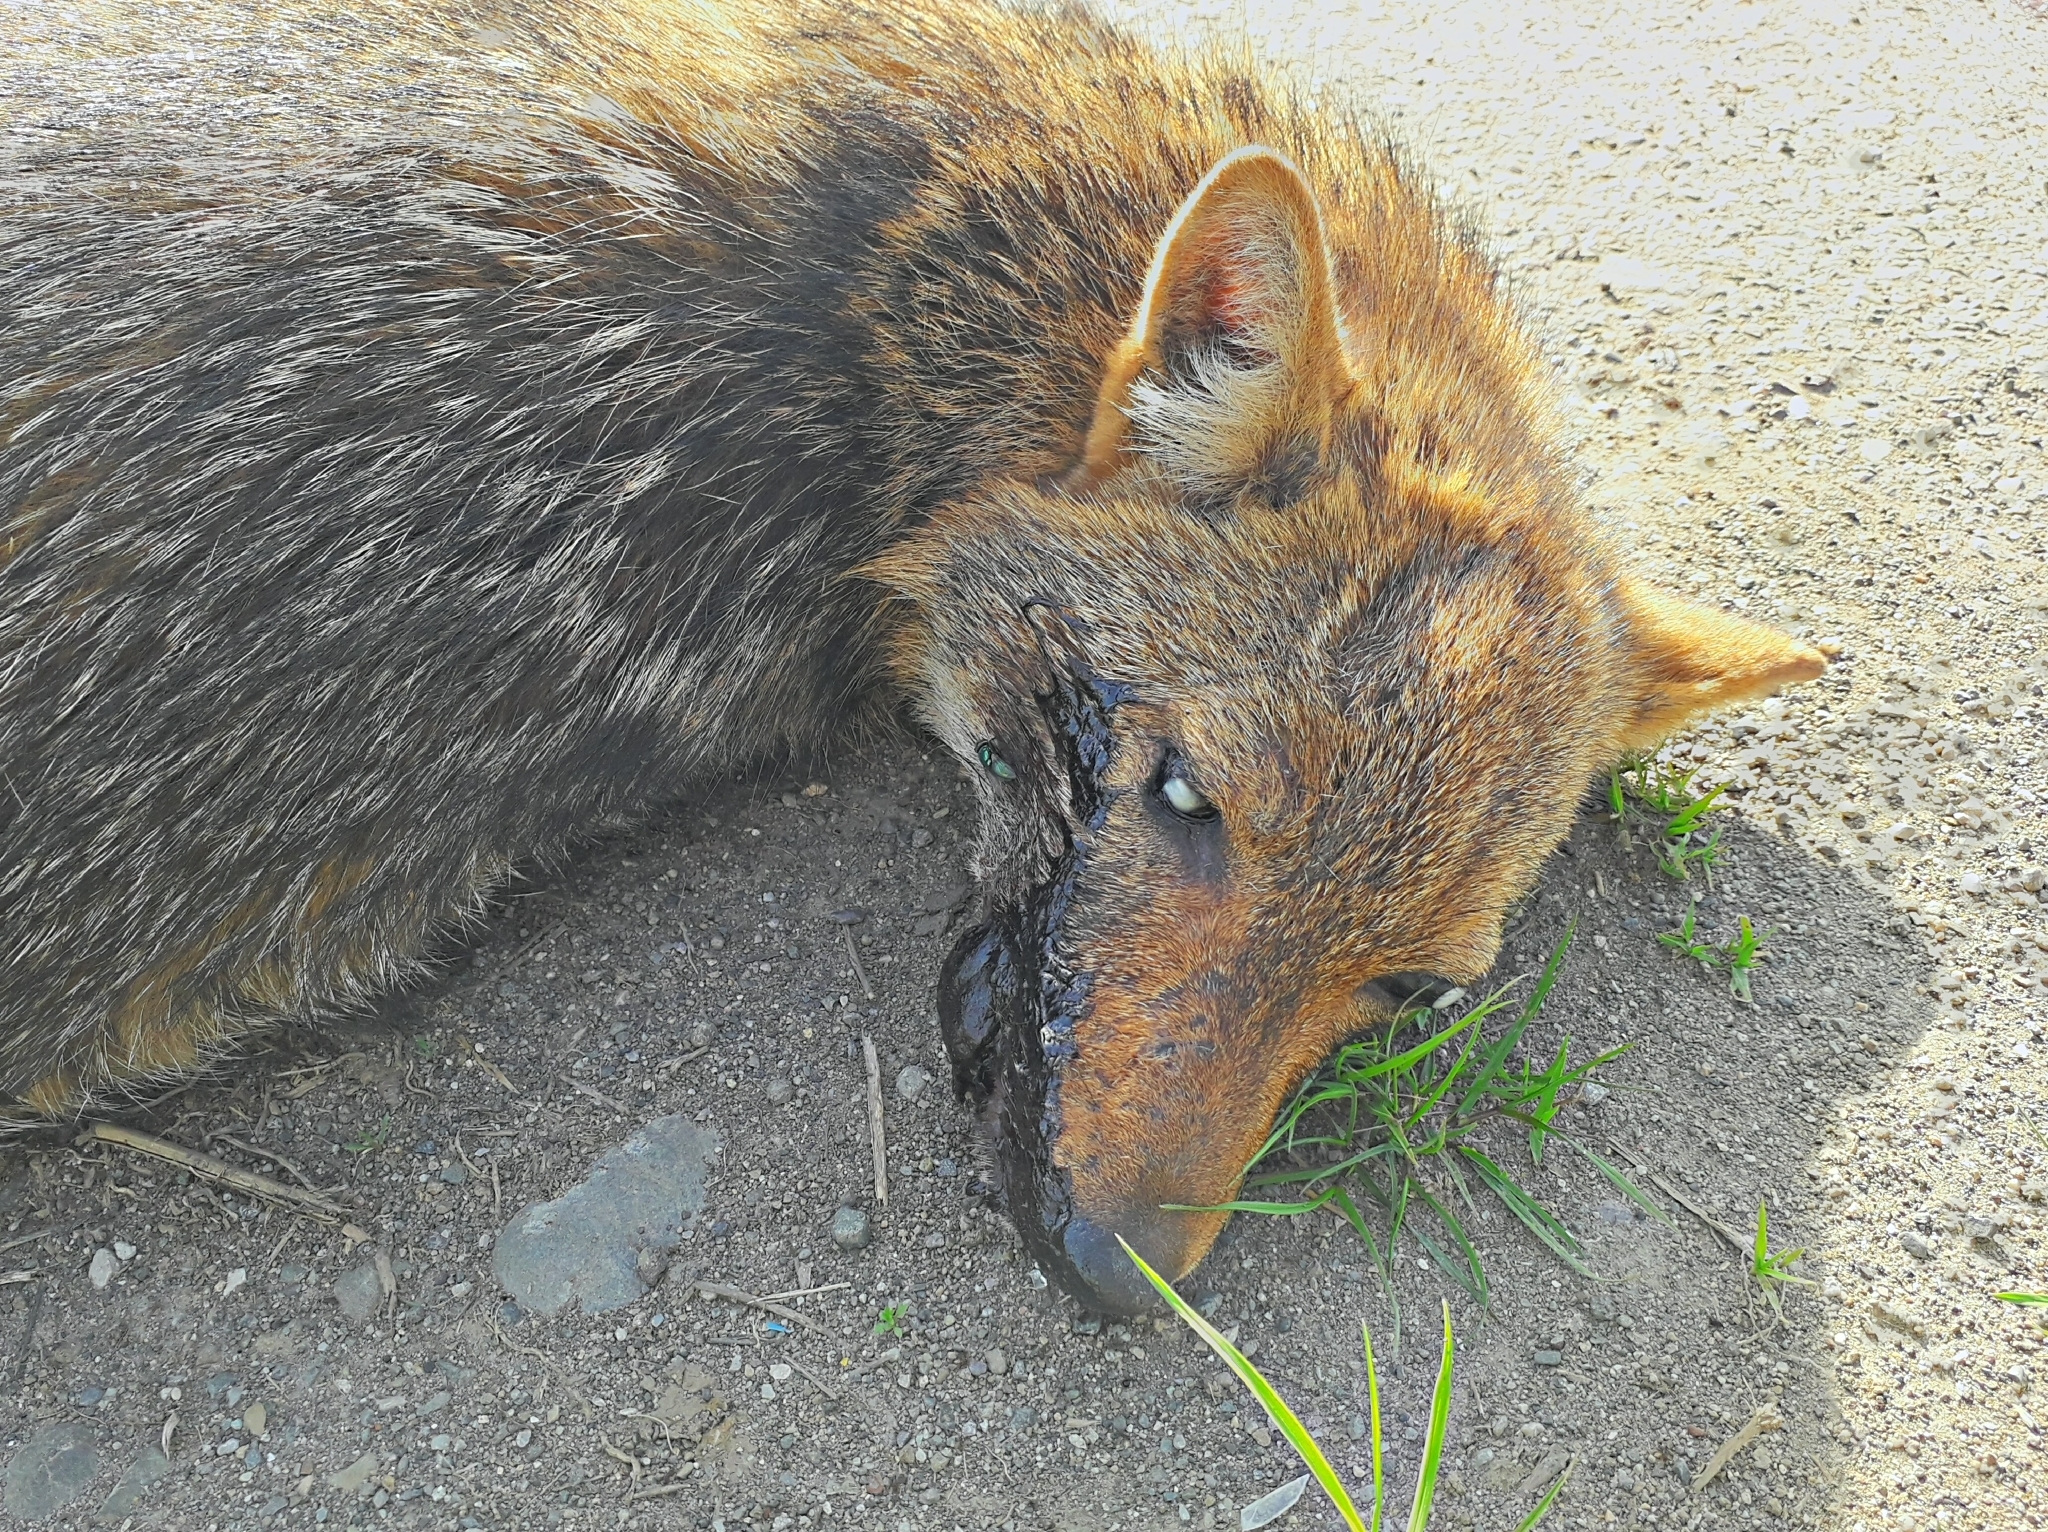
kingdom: Animalia
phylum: Chordata
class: Mammalia
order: Carnivora
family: Canidae
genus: Canis
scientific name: Canis aureus
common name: Golden jackal
